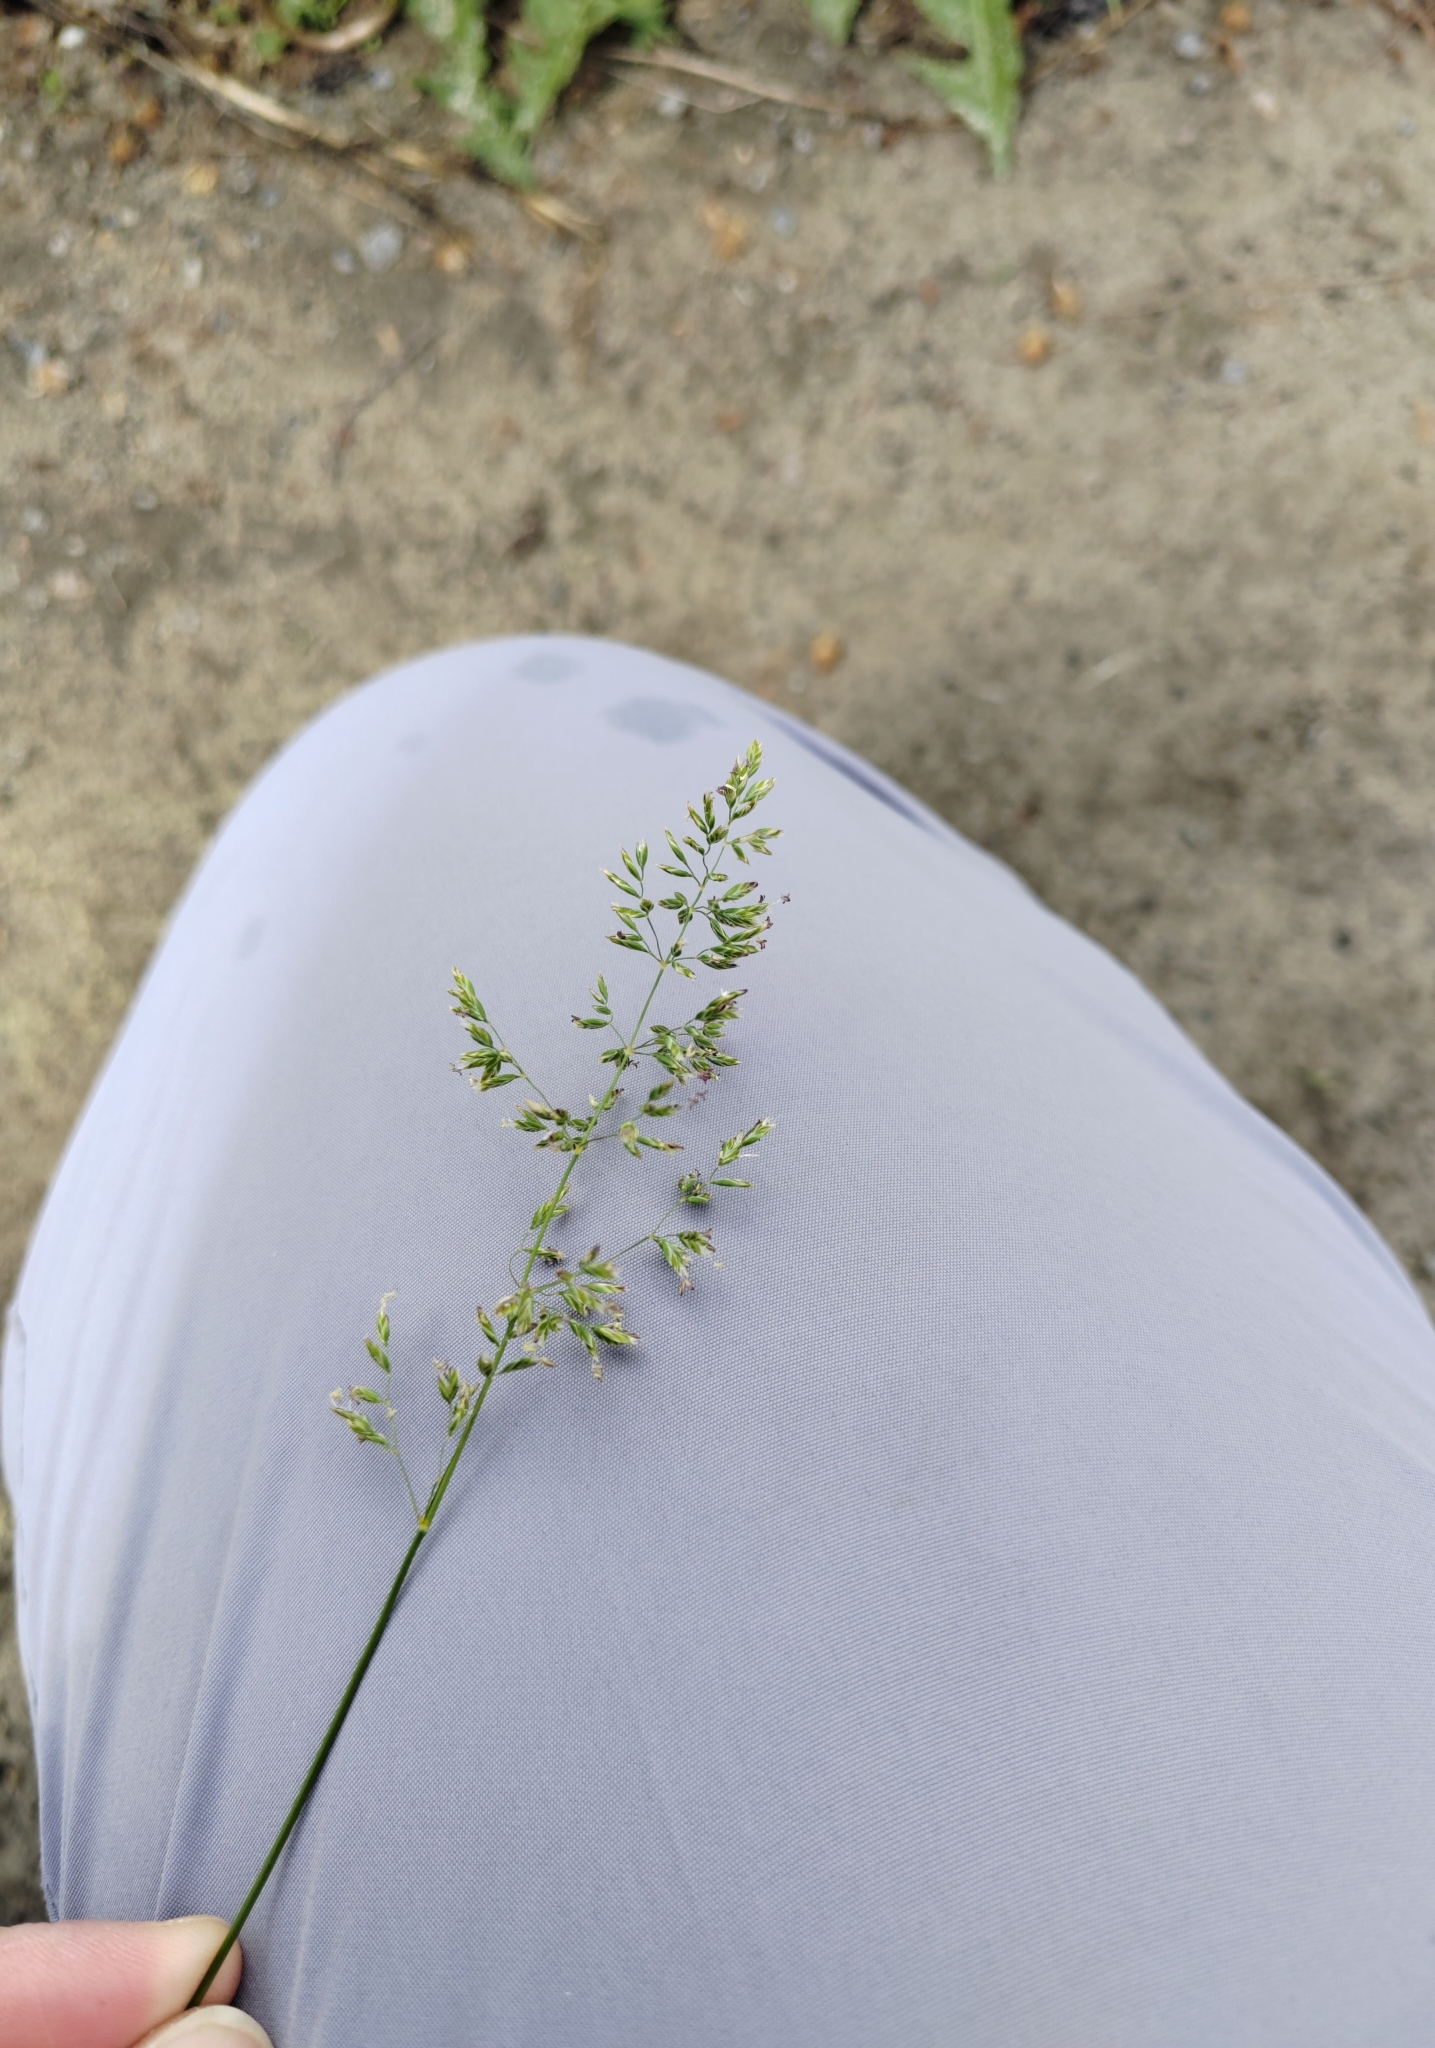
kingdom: Plantae
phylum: Tracheophyta
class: Liliopsida
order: Poales
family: Poaceae
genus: Poa
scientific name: Poa pratensis
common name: Kentucky bluegrass
